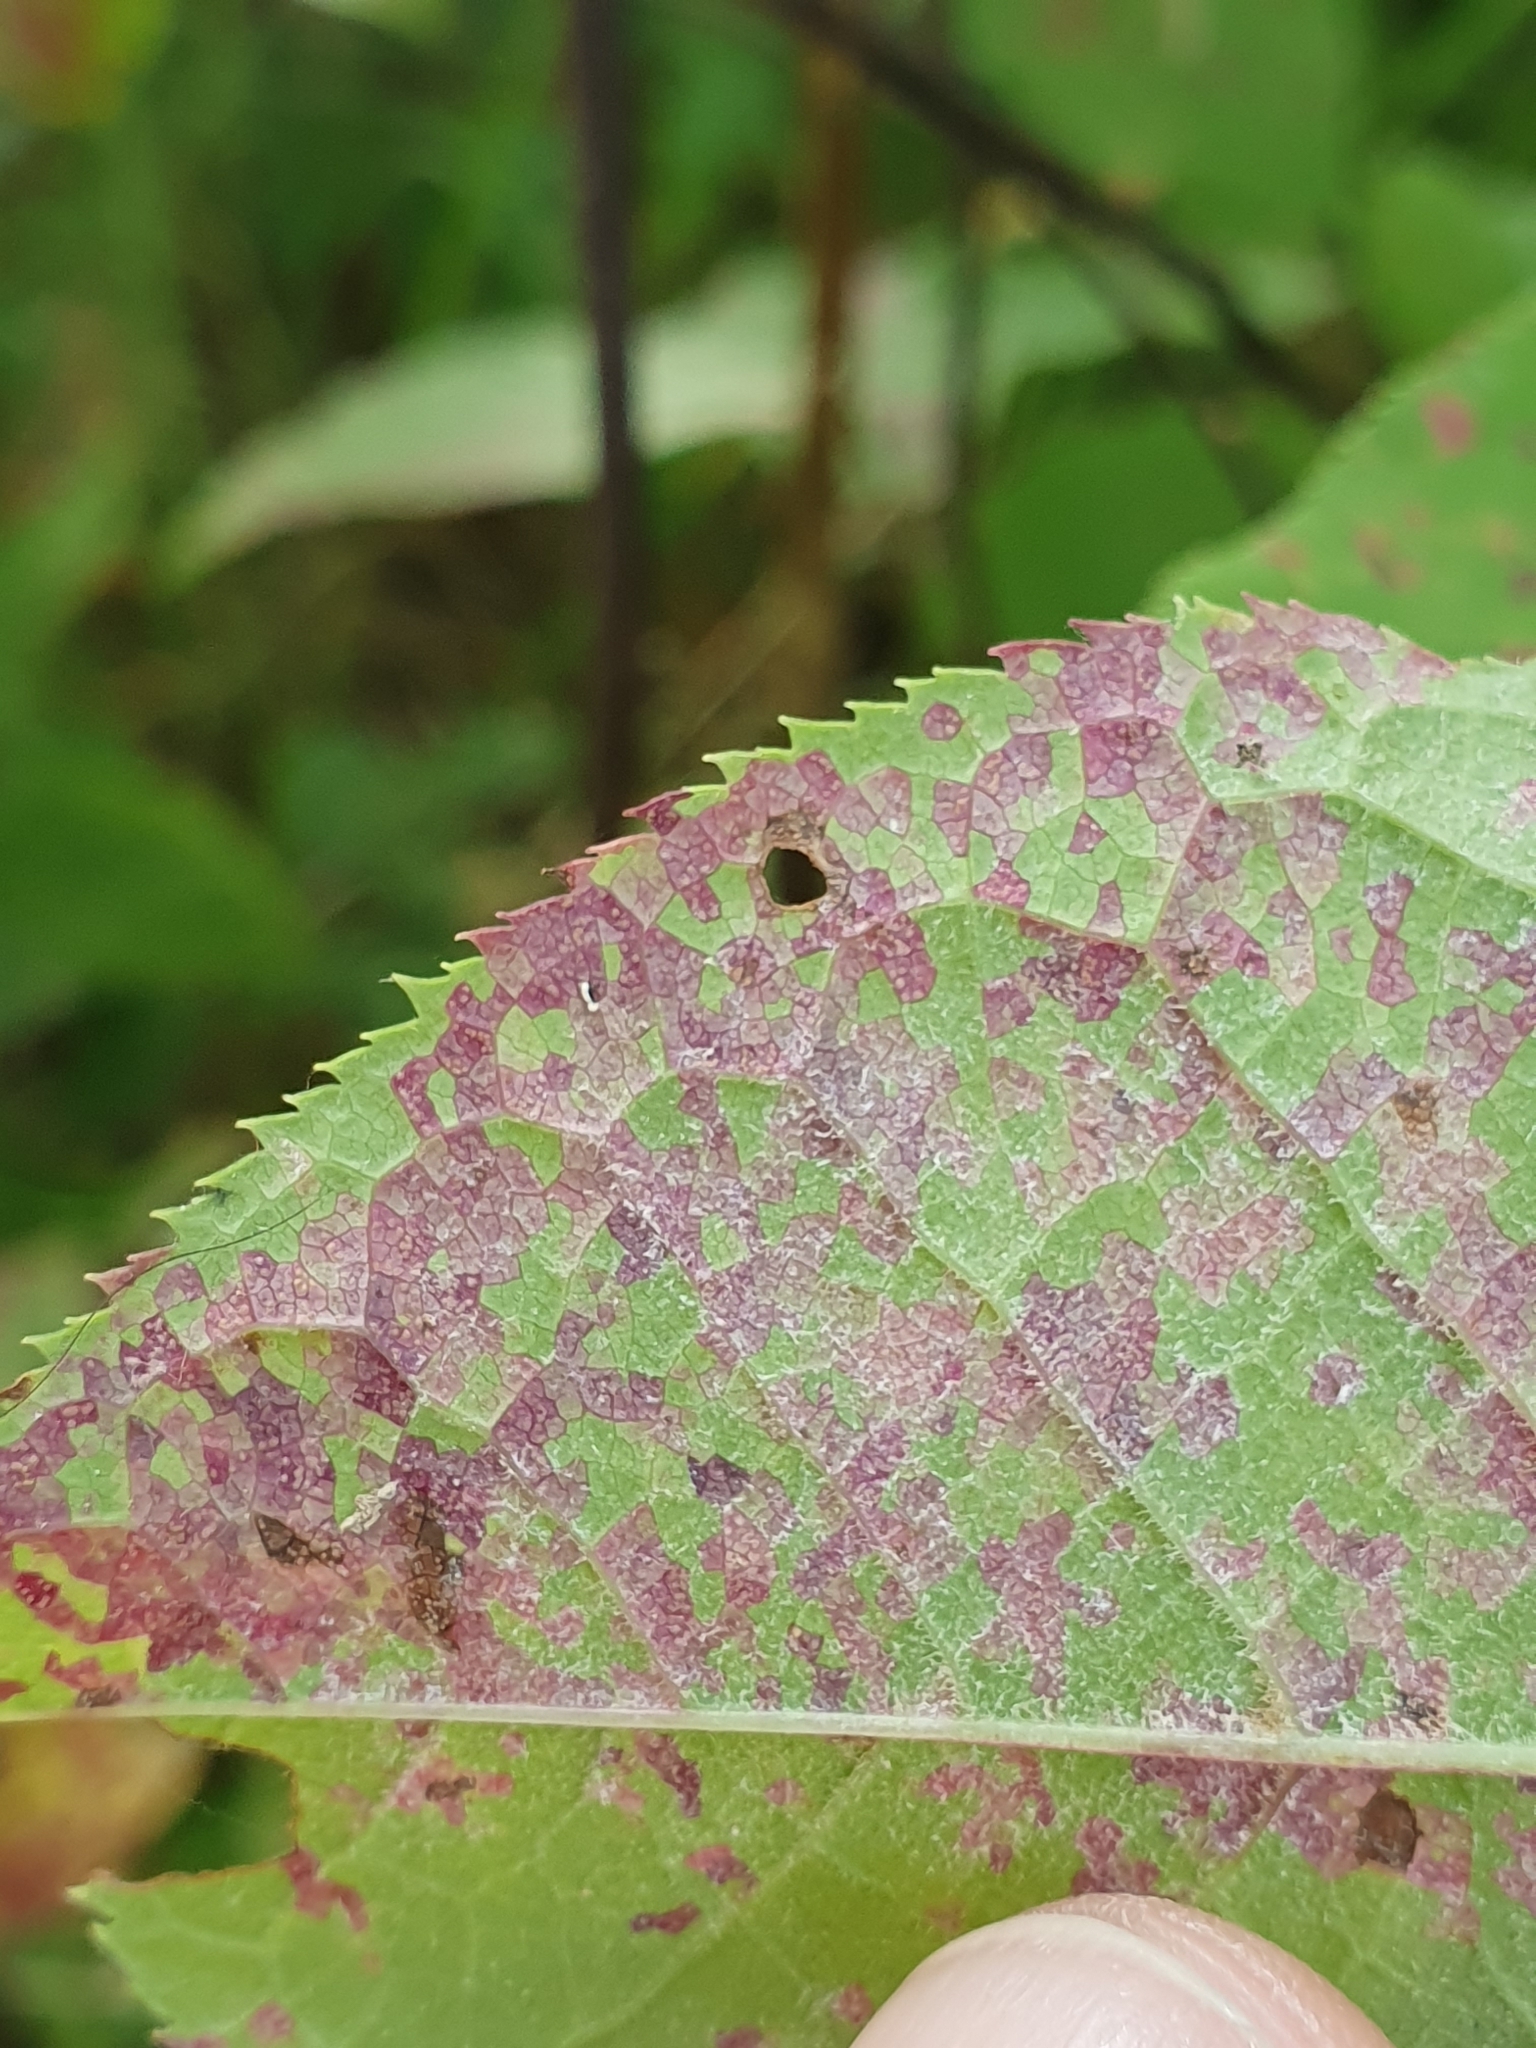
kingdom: Fungi
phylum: Basidiomycota
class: Pucciniomycetes
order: Pucciniales
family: Pucciniastraceae
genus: Thekopsora
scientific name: Thekopsora areolata
